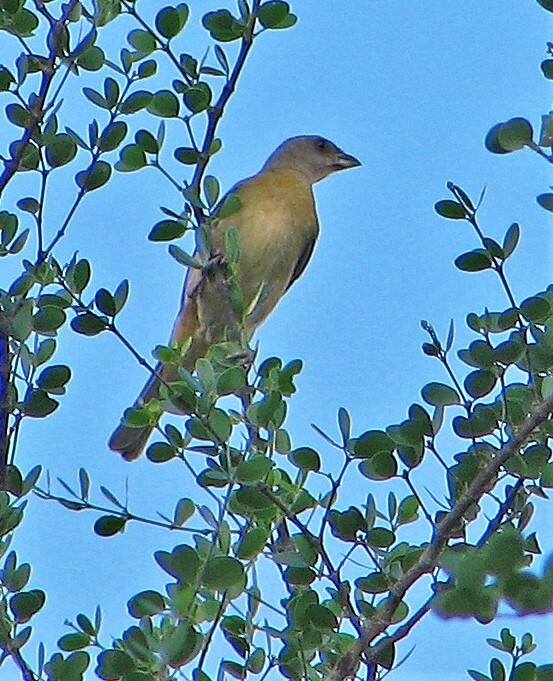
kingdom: Animalia
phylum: Chordata
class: Aves
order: Passeriformes
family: Thraupidae
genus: Rauenia
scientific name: Rauenia bonariensis
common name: Blue-and-yellow tanager
